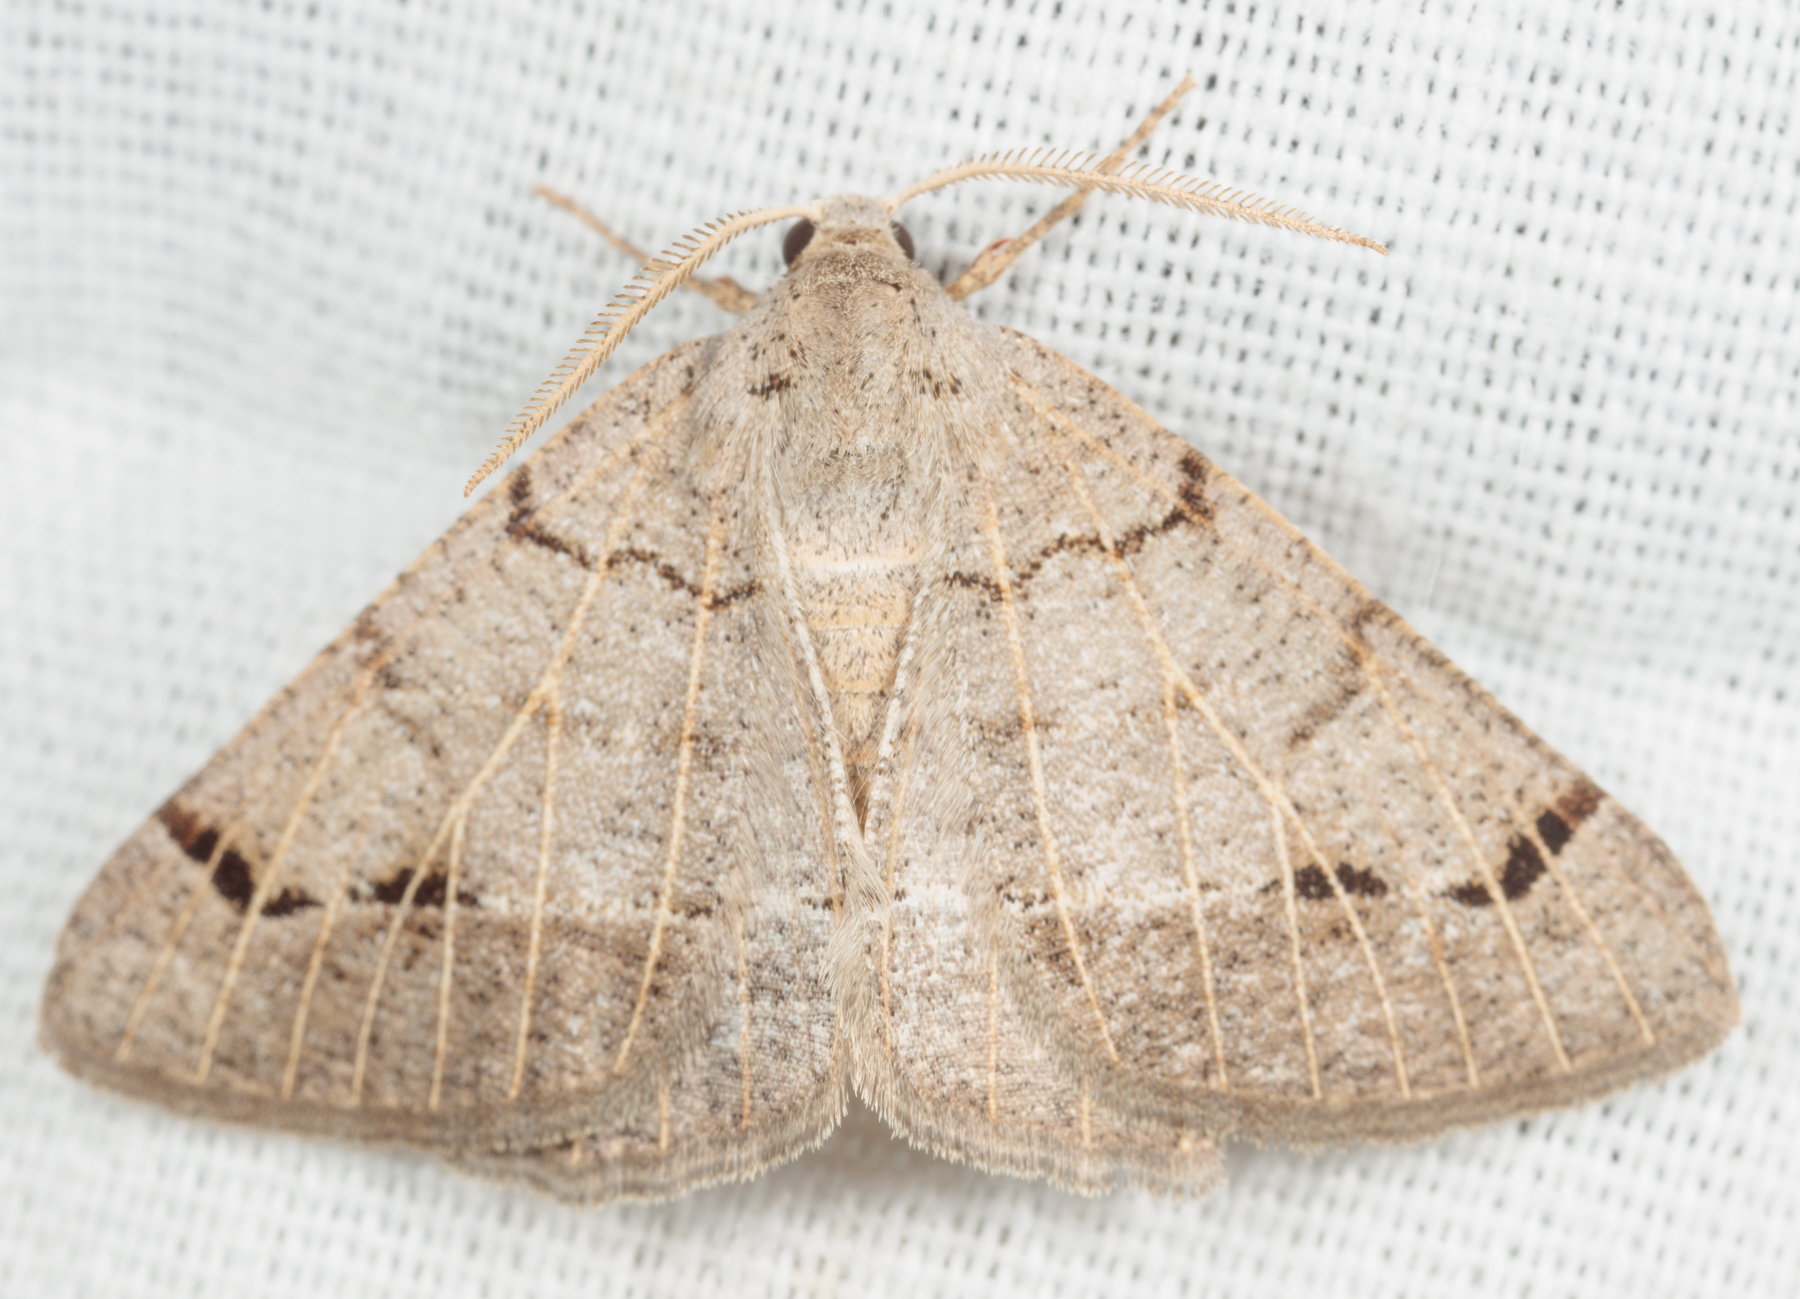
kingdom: Animalia
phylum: Arthropoda
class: Insecta
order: Lepidoptera
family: Geometridae
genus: Isturgia
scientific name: Isturgia dislocaria
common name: Pale-viened enconista
